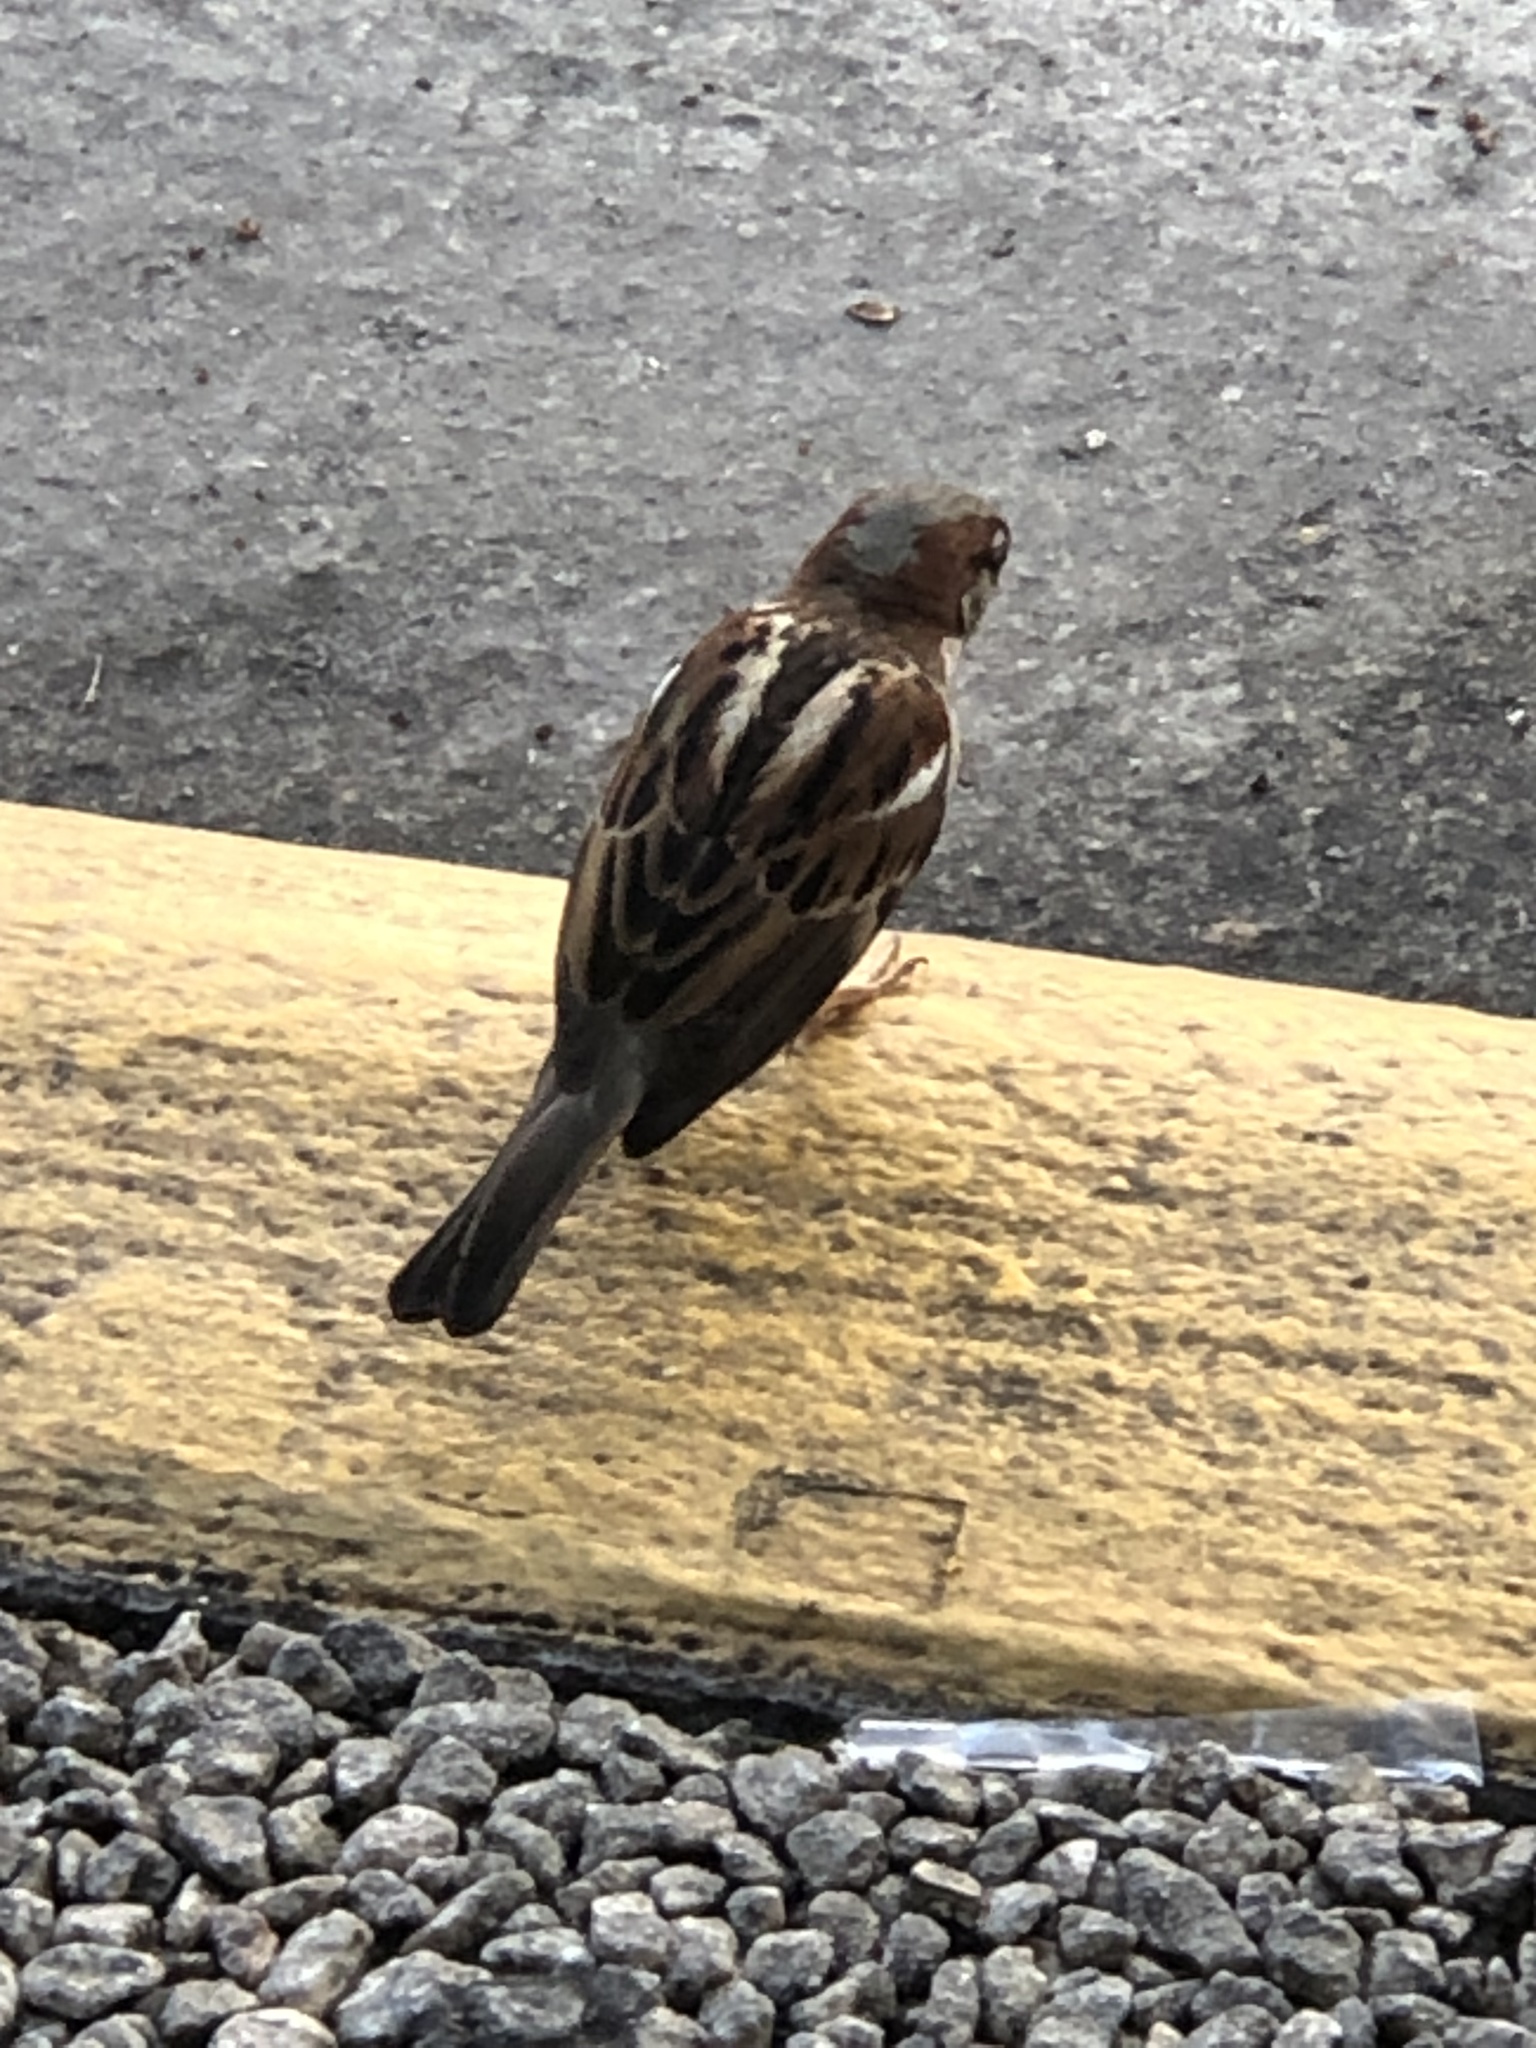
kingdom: Animalia
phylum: Chordata
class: Aves
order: Passeriformes
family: Passeridae
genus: Passer
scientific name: Passer domesticus
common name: House sparrow
